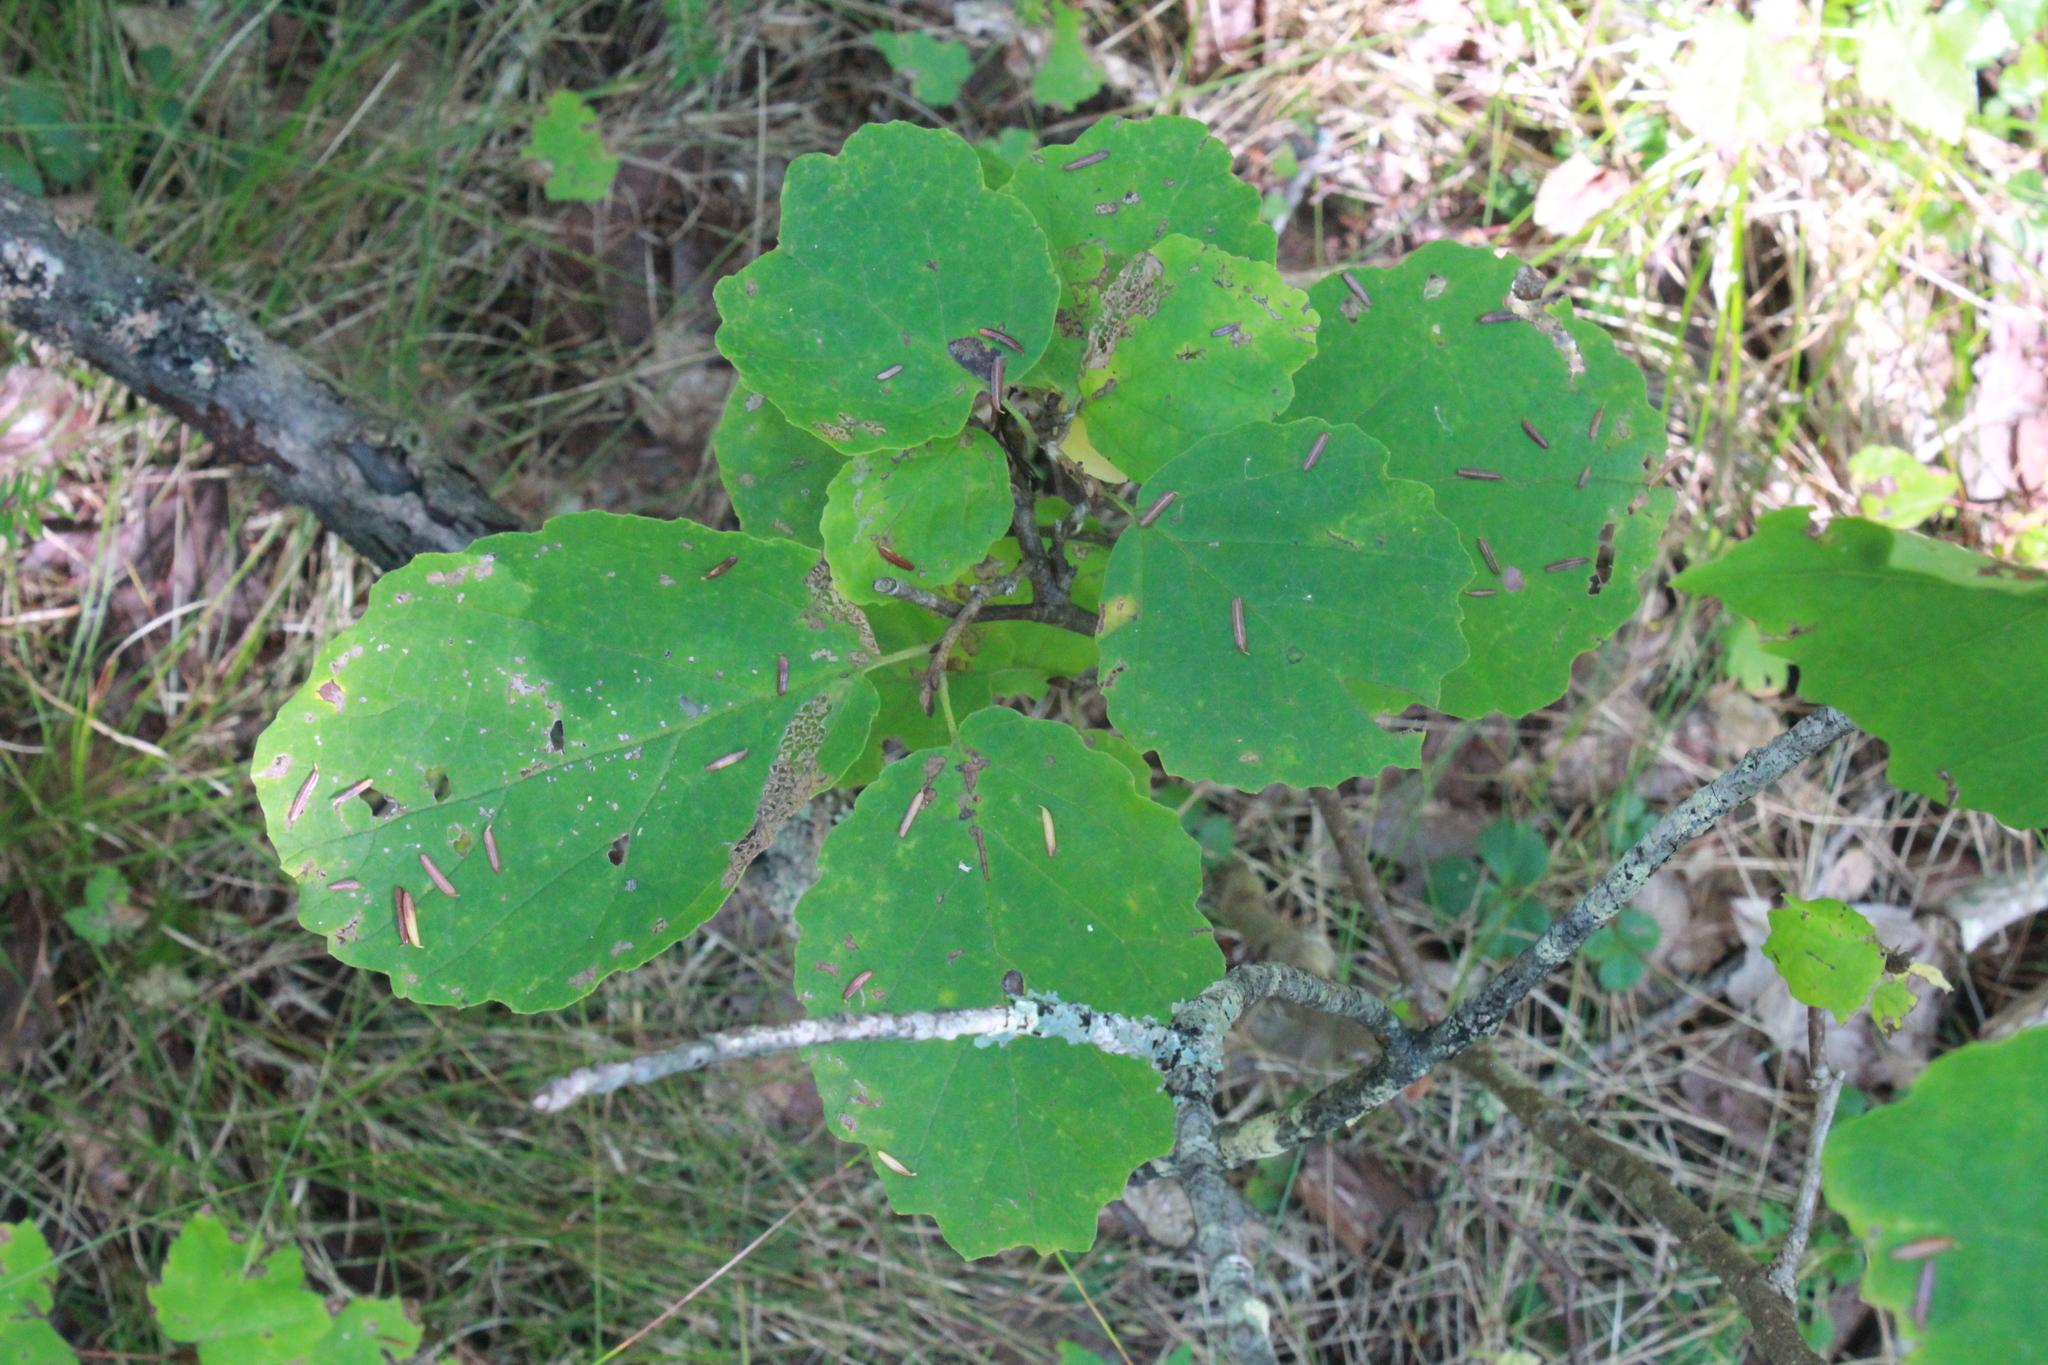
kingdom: Plantae
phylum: Tracheophyta
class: Magnoliopsida
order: Saxifragales
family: Hamamelidaceae
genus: Hamamelis
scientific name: Hamamelis virginiana
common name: Witch-hazel
